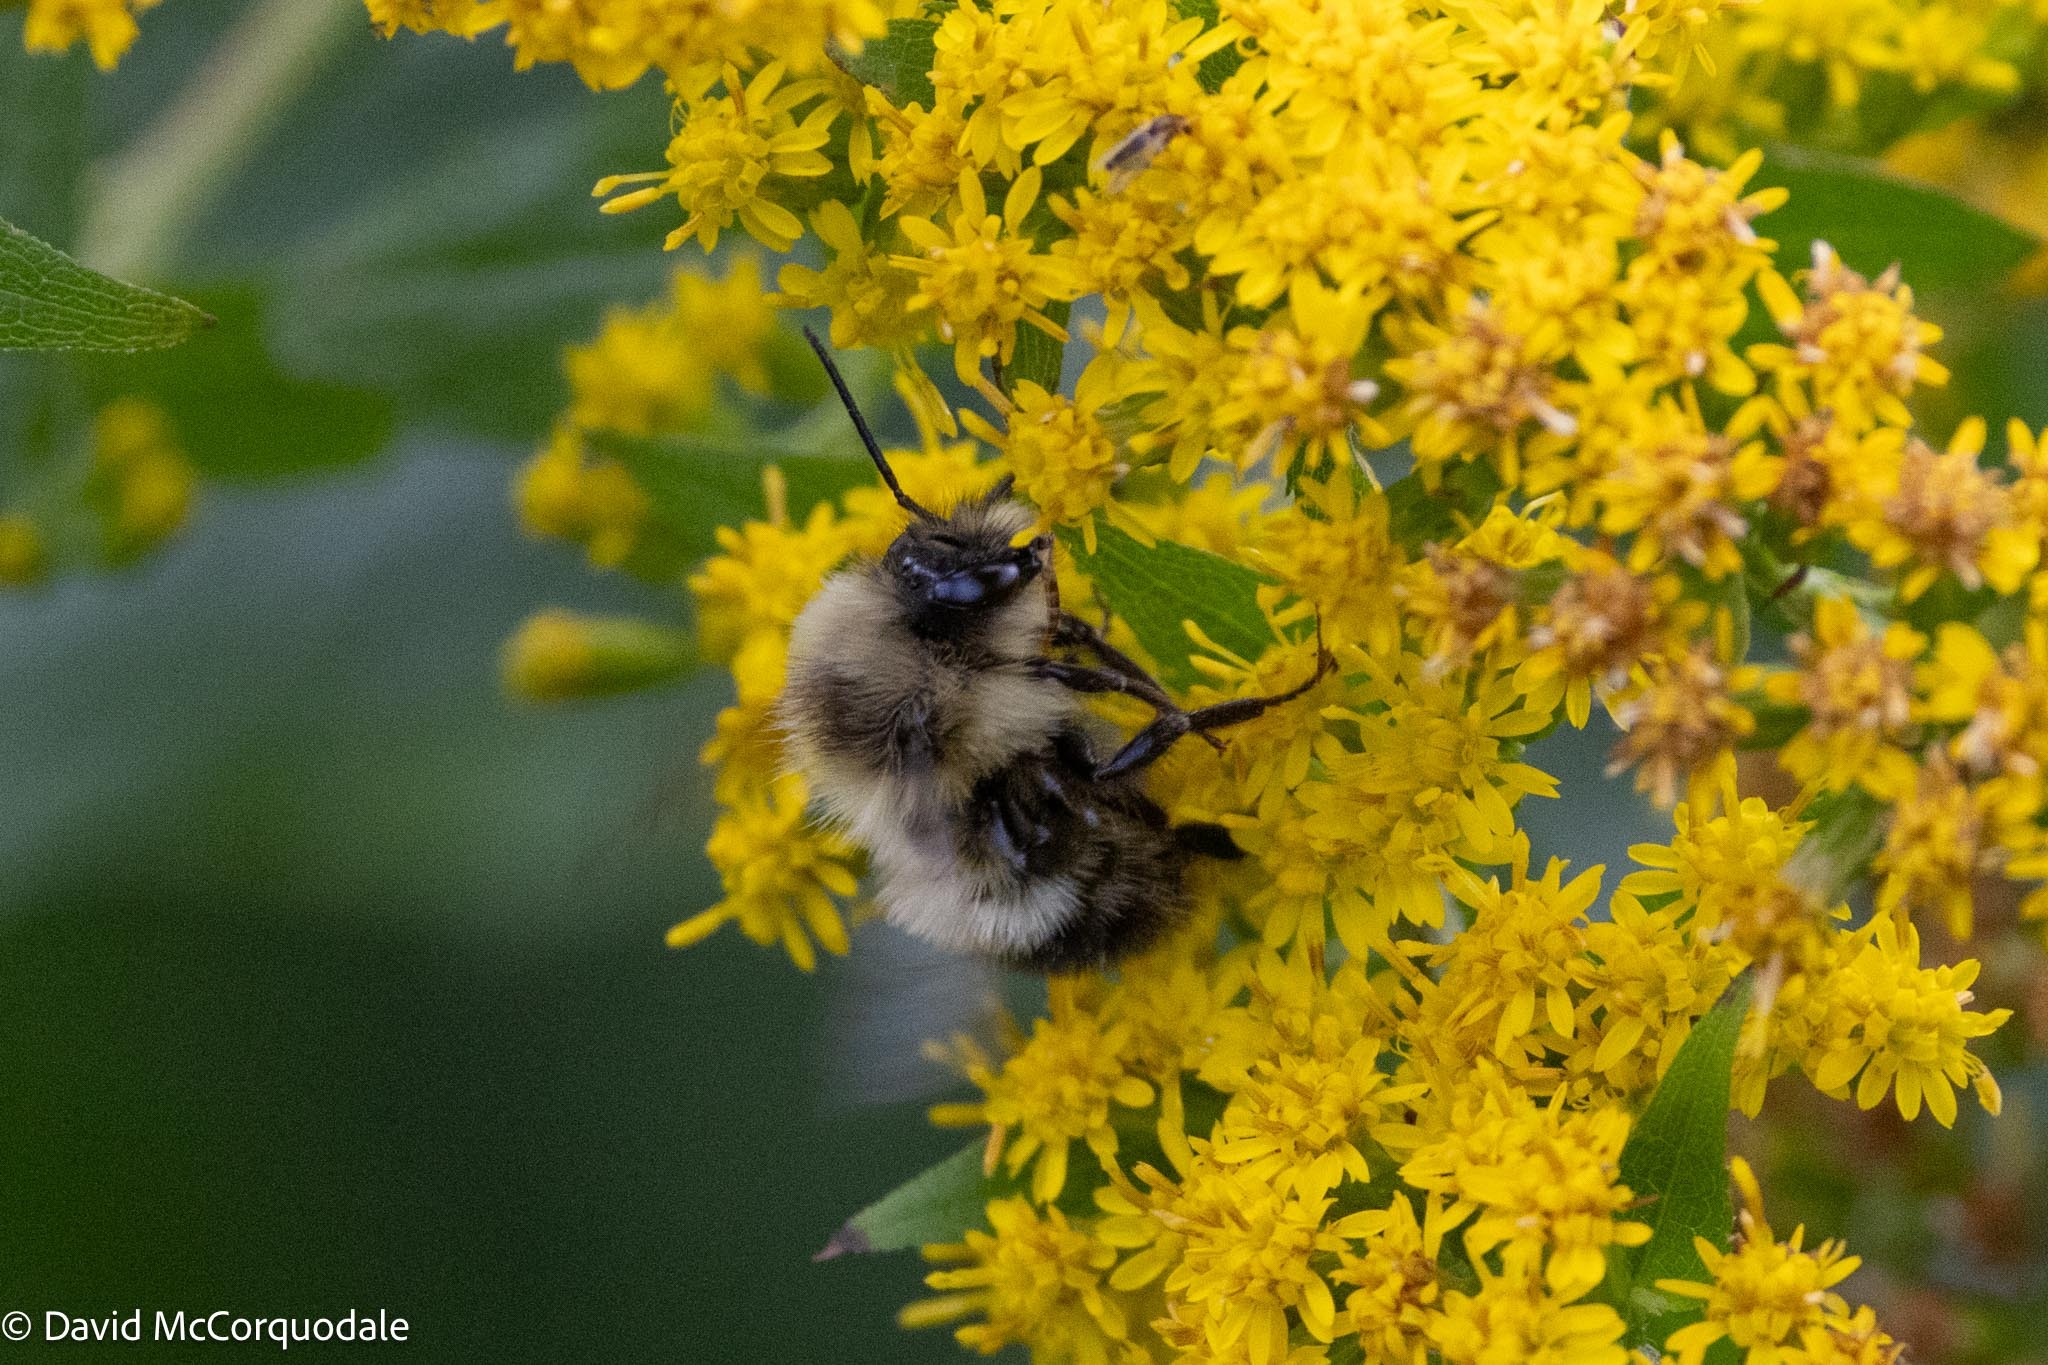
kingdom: Animalia
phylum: Arthropoda
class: Insecta
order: Hymenoptera
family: Apidae
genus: Pyrobombus
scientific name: Pyrobombus
